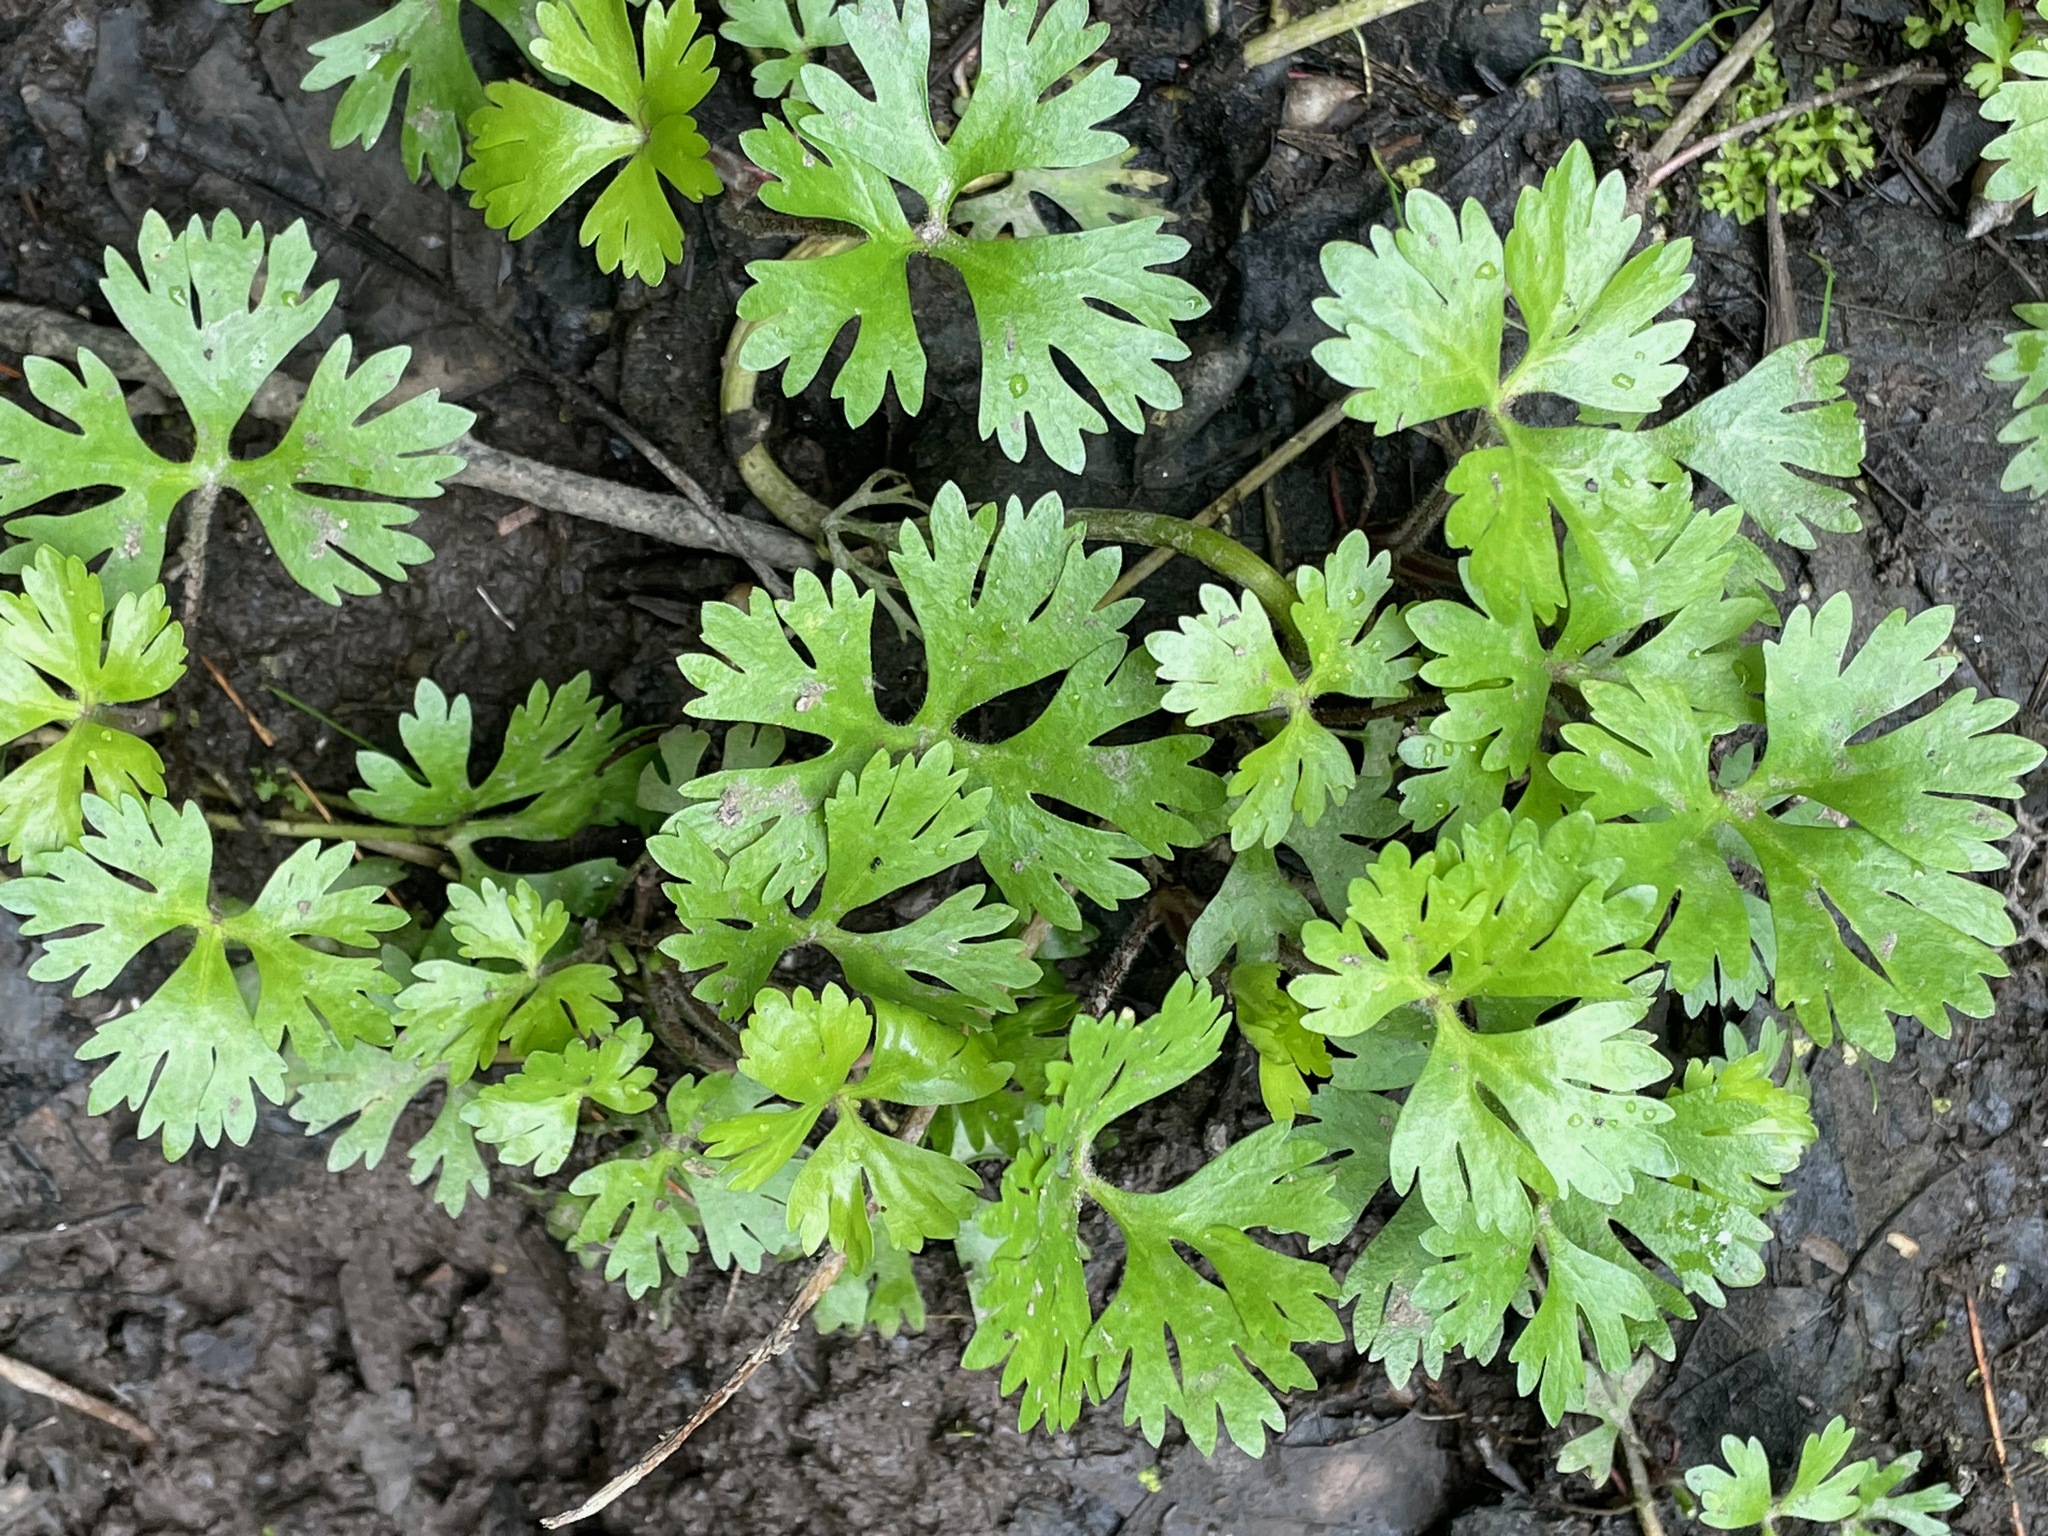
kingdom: Plantae
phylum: Tracheophyta
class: Magnoliopsida
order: Ranunculales
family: Ranunculaceae
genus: Ranunculus
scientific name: Ranunculus flabellaris
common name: Yellow water-crowfoot
